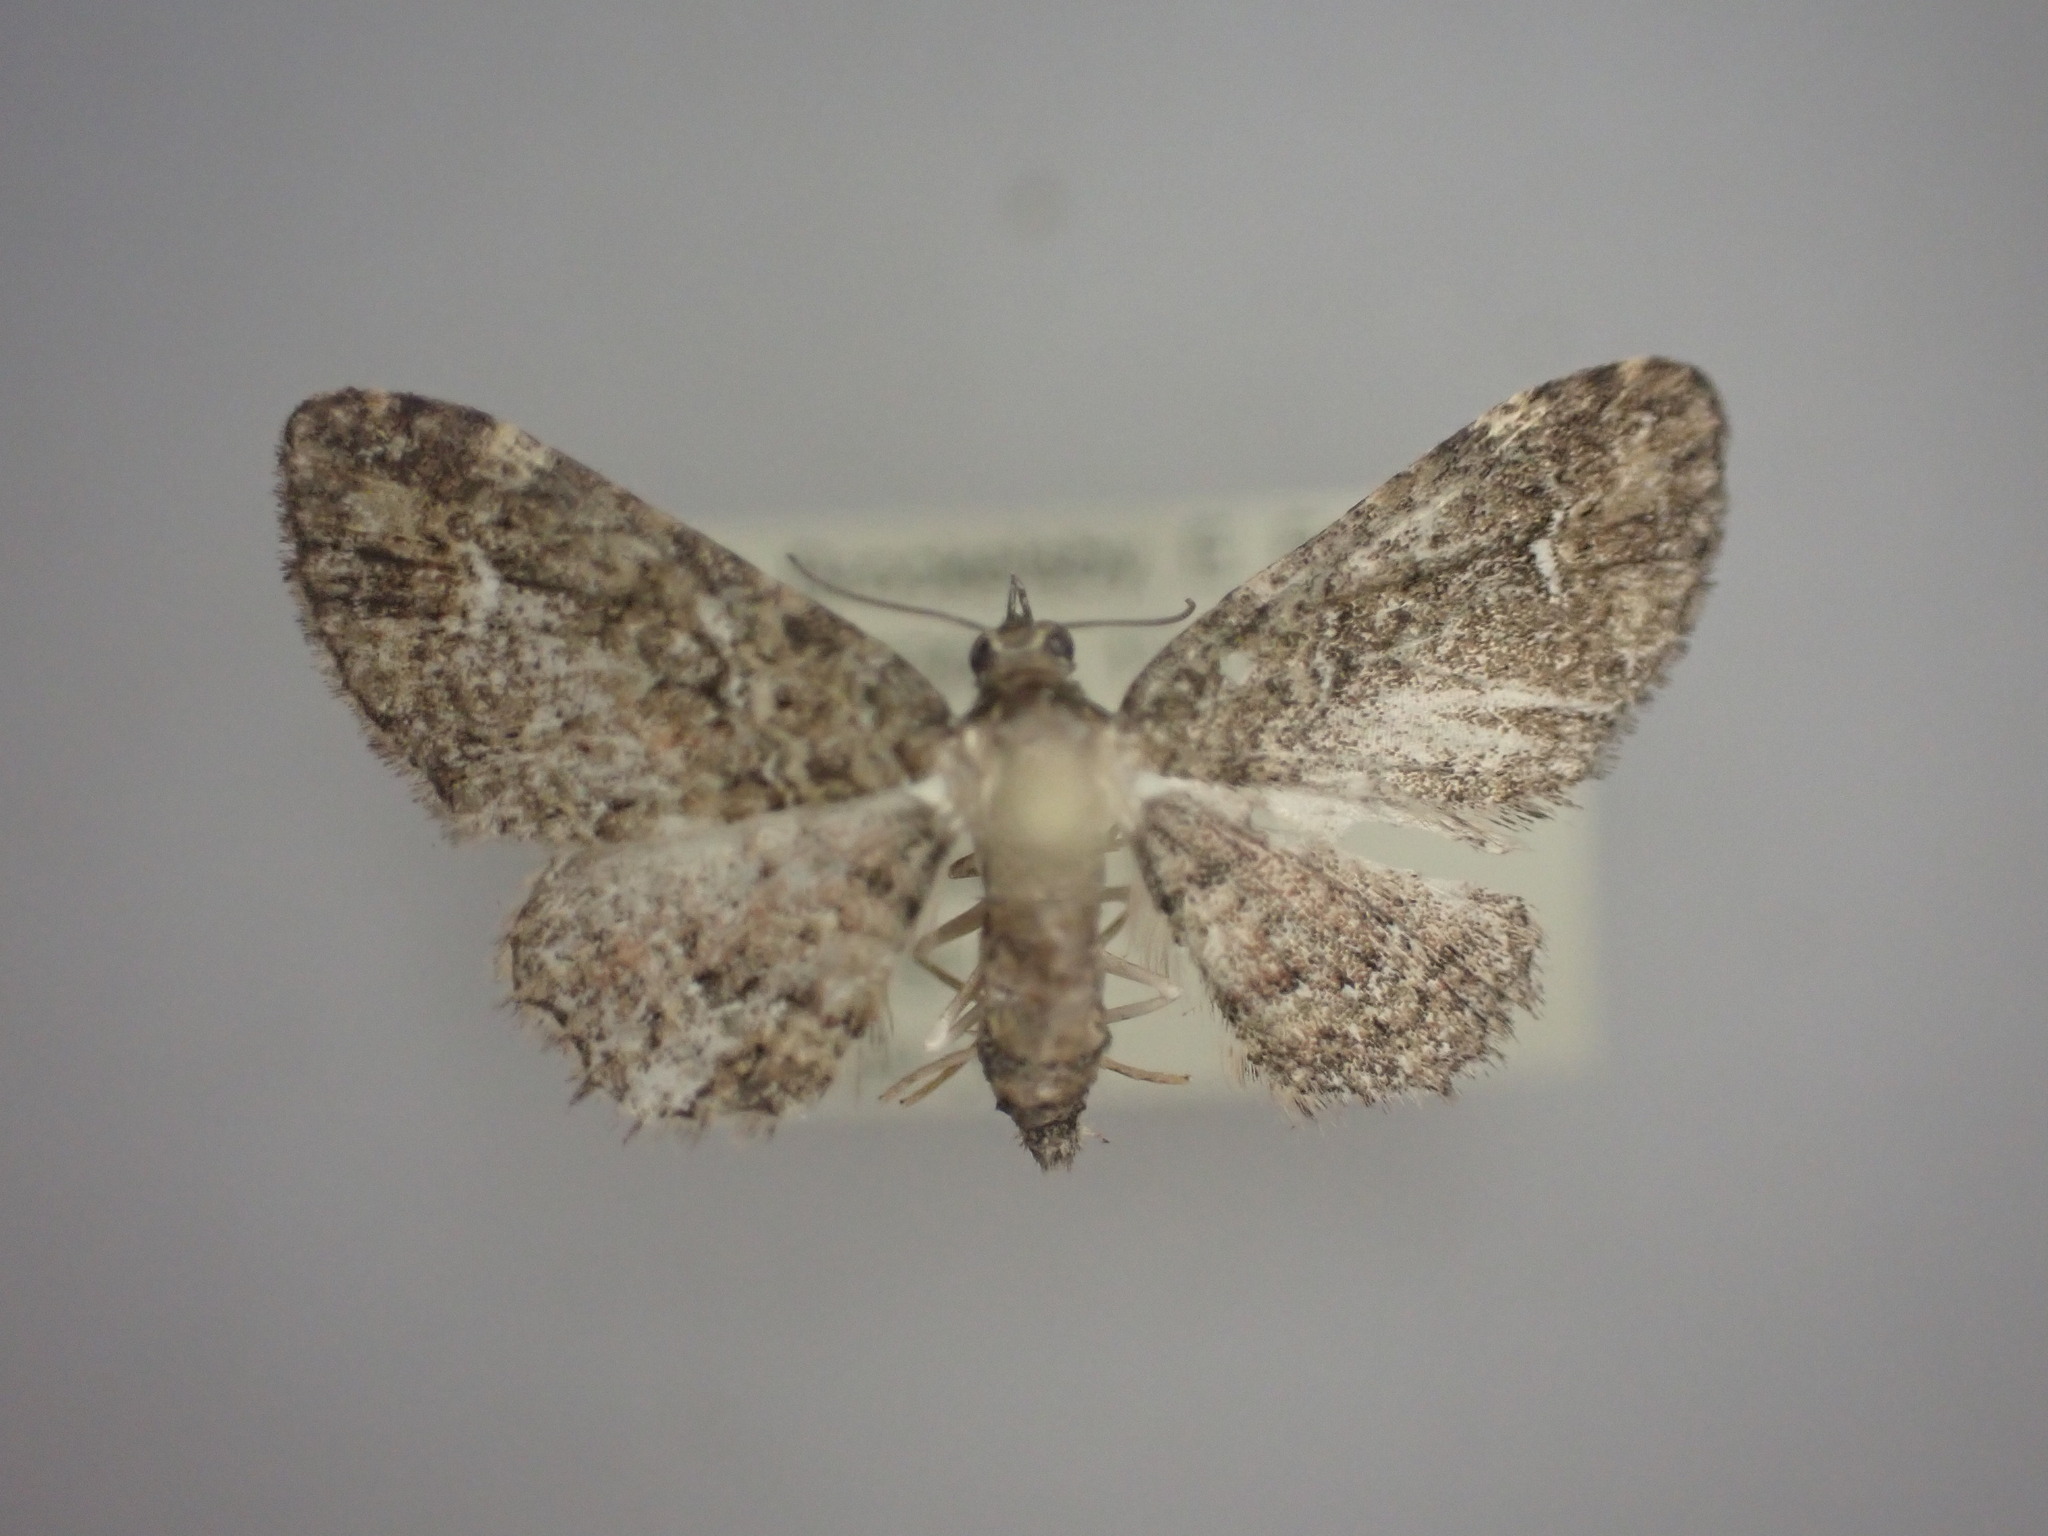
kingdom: Animalia
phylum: Arthropoda
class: Insecta
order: Lepidoptera
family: Geometridae
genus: Pasiphilodes
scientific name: Pasiphilodes testulata
